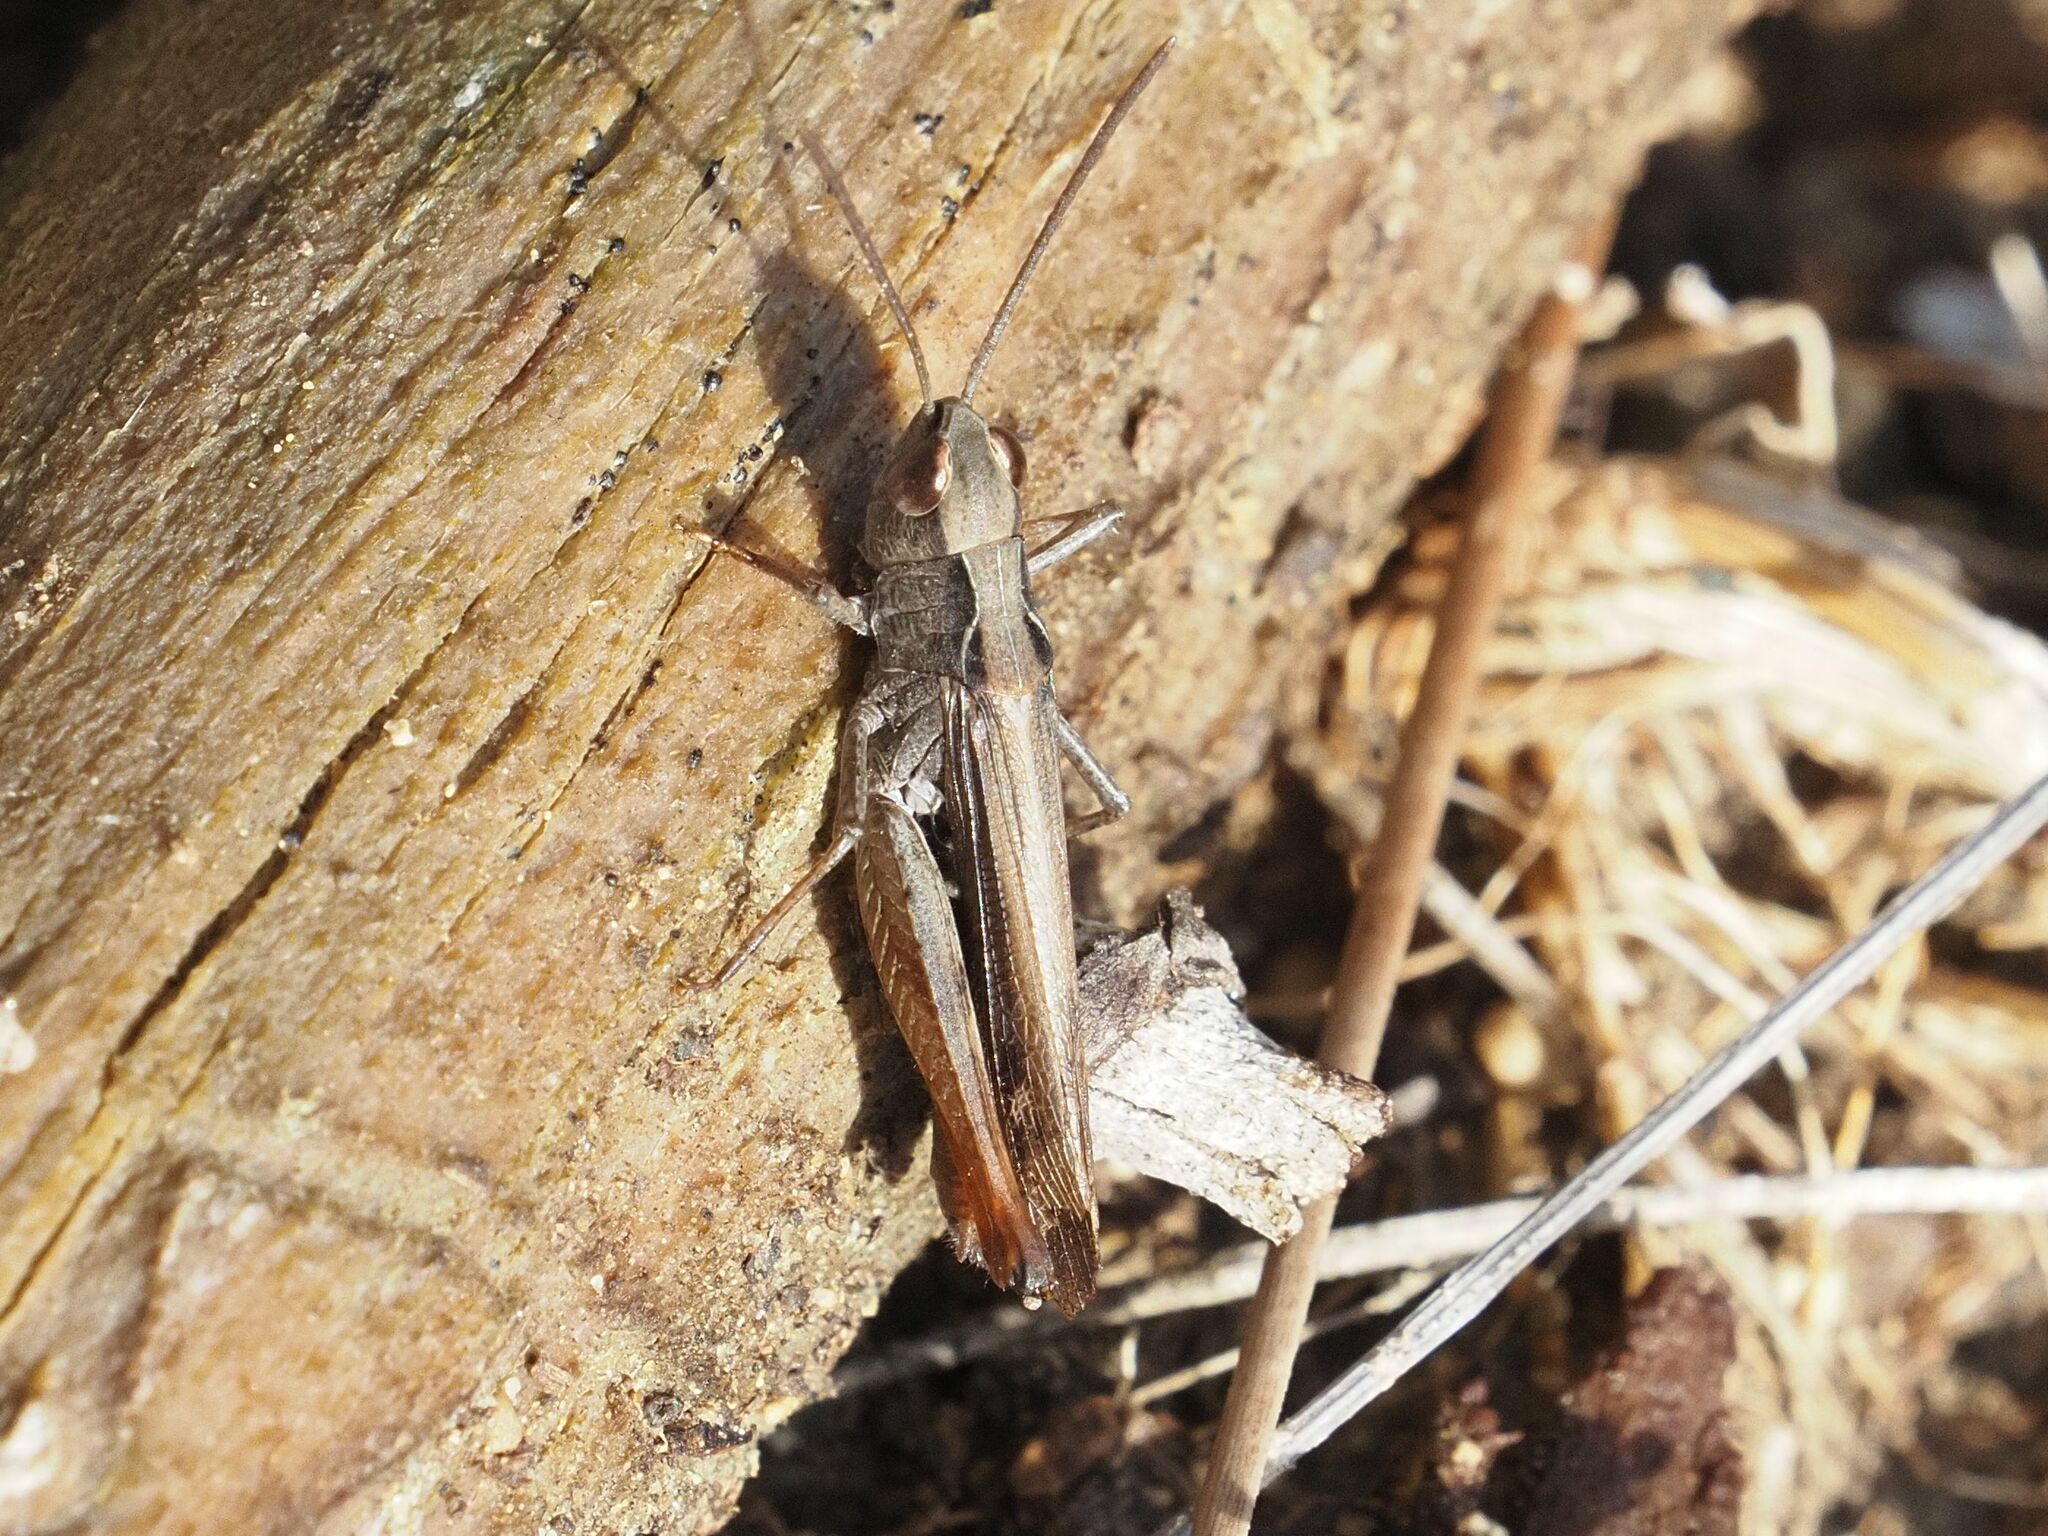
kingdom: Animalia
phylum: Arthropoda
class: Insecta
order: Orthoptera
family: Acrididae
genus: Chorthippus
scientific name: Chorthippus vagans
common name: Heath grasshopper
